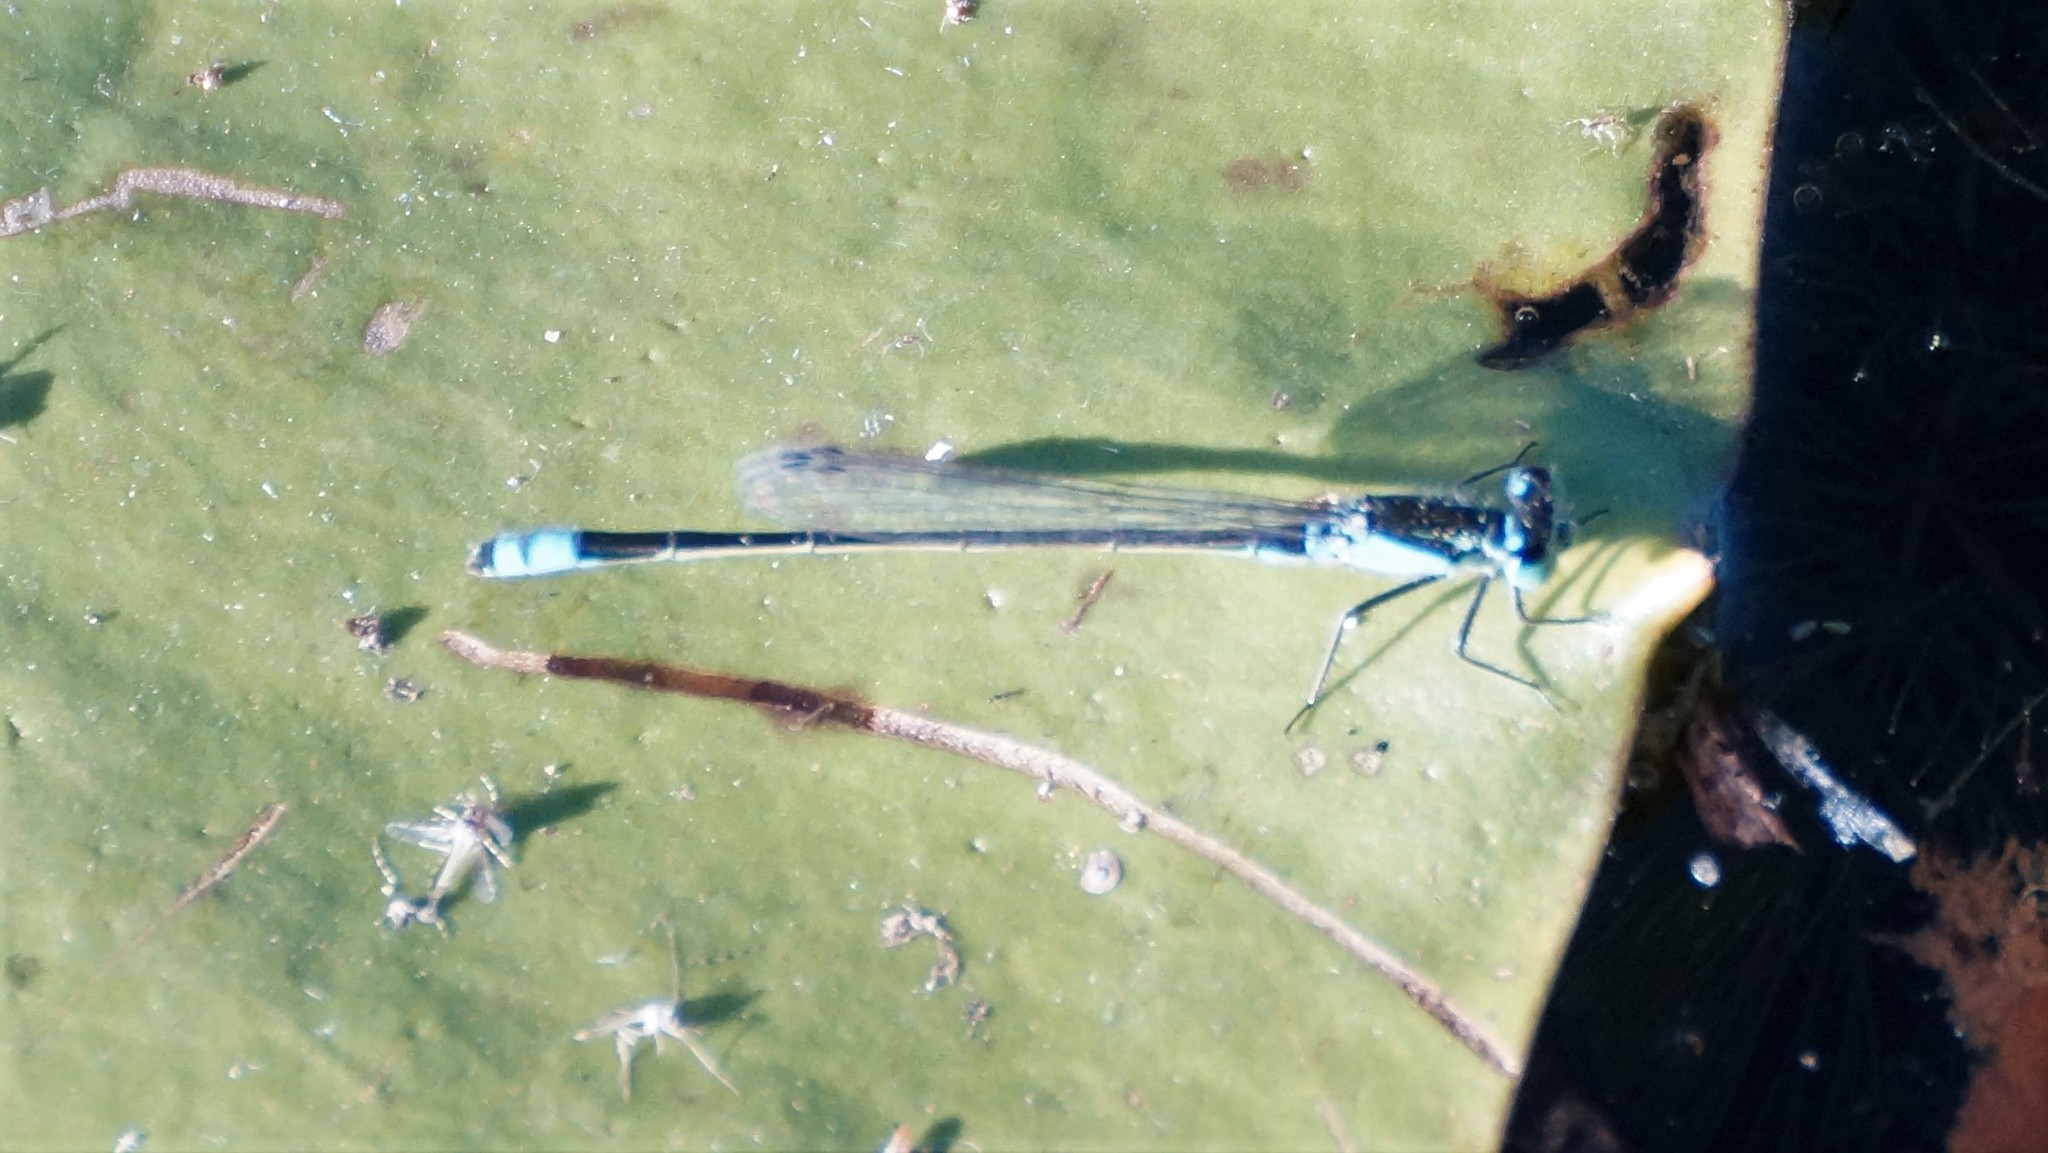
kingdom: Animalia
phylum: Arthropoda
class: Insecta
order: Odonata
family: Coenagrionidae
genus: Ischnura
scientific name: Ischnura heterosticta
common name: Common bluetail
